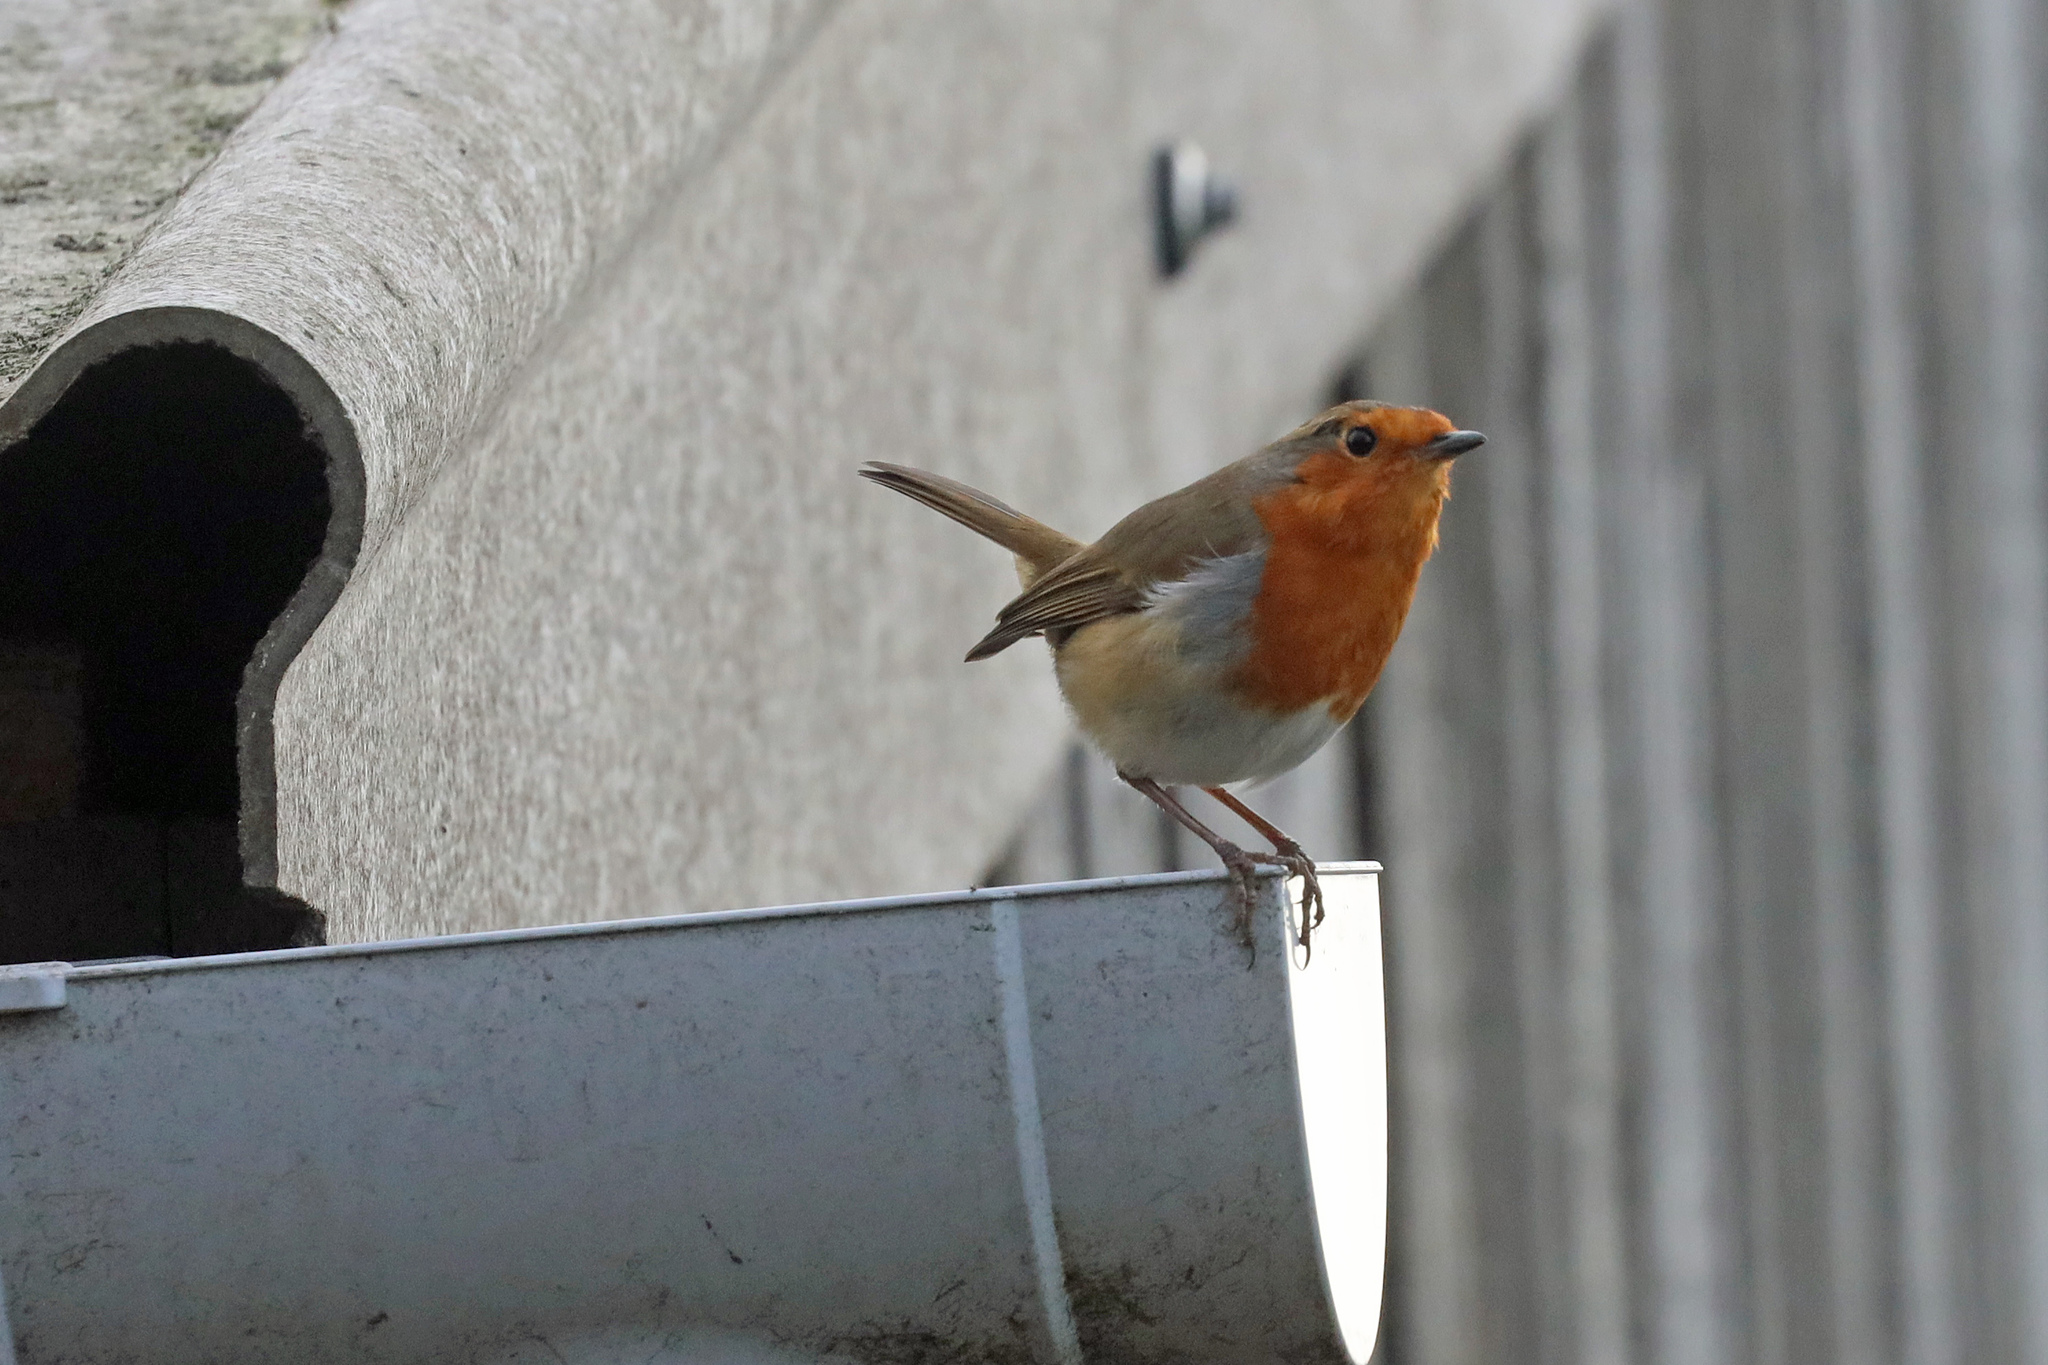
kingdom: Animalia
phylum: Chordata
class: Aves
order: Passeriformes
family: Muscicapidae
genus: Erithacus
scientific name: Erithacus rubecula
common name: European robin
